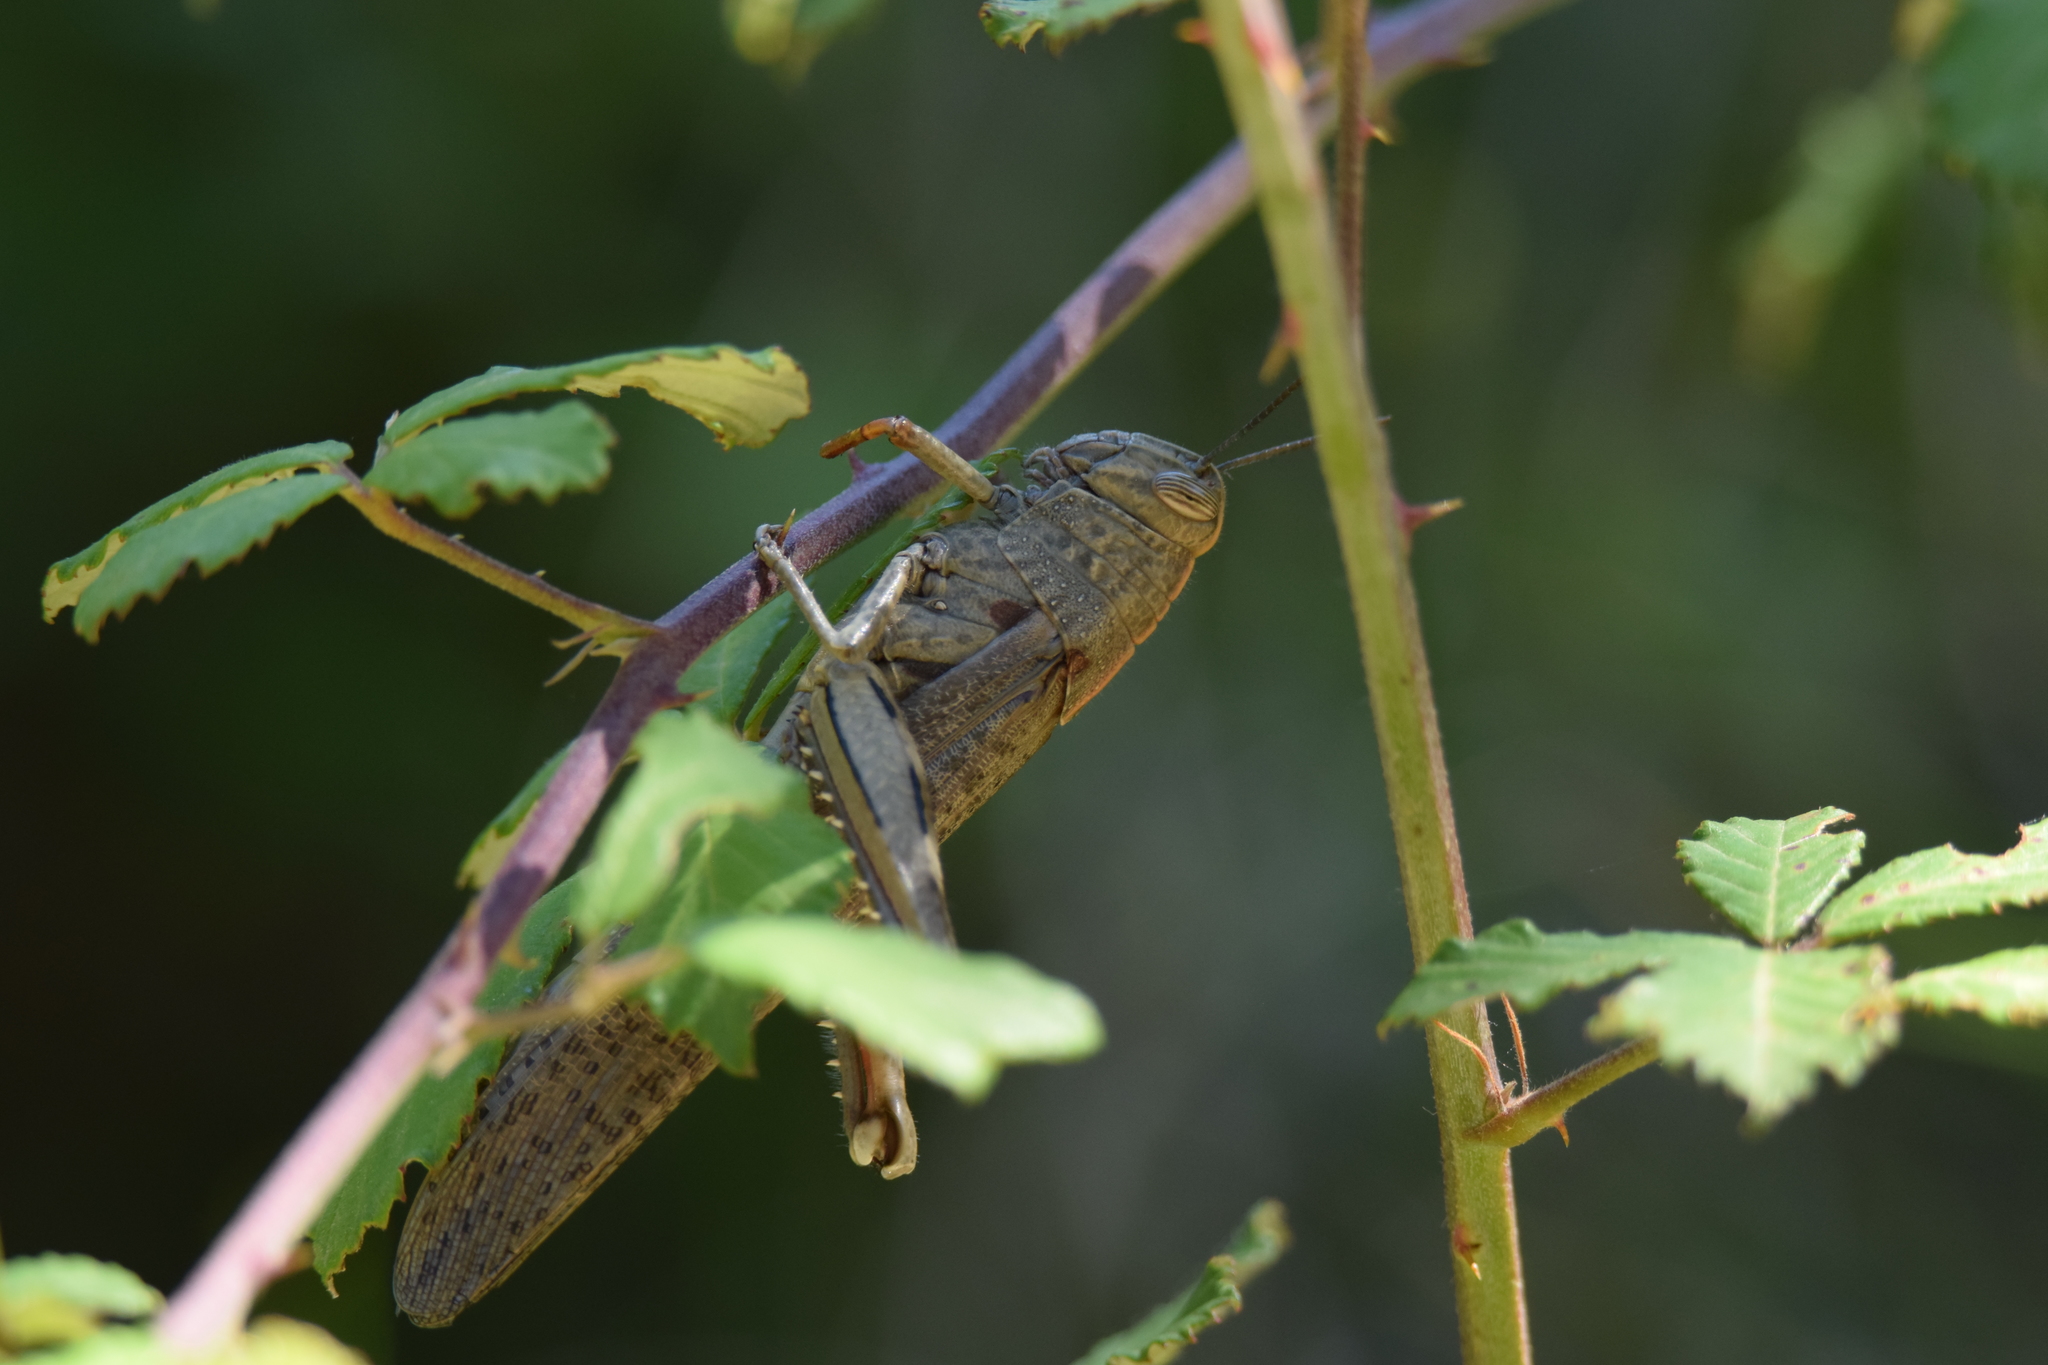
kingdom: Animalia
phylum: Arthropoda
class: Insecta
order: Orthoptera
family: Acrididae
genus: Anacridium
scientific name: Anacridium aegyptium
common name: Egyptian grasshopper
